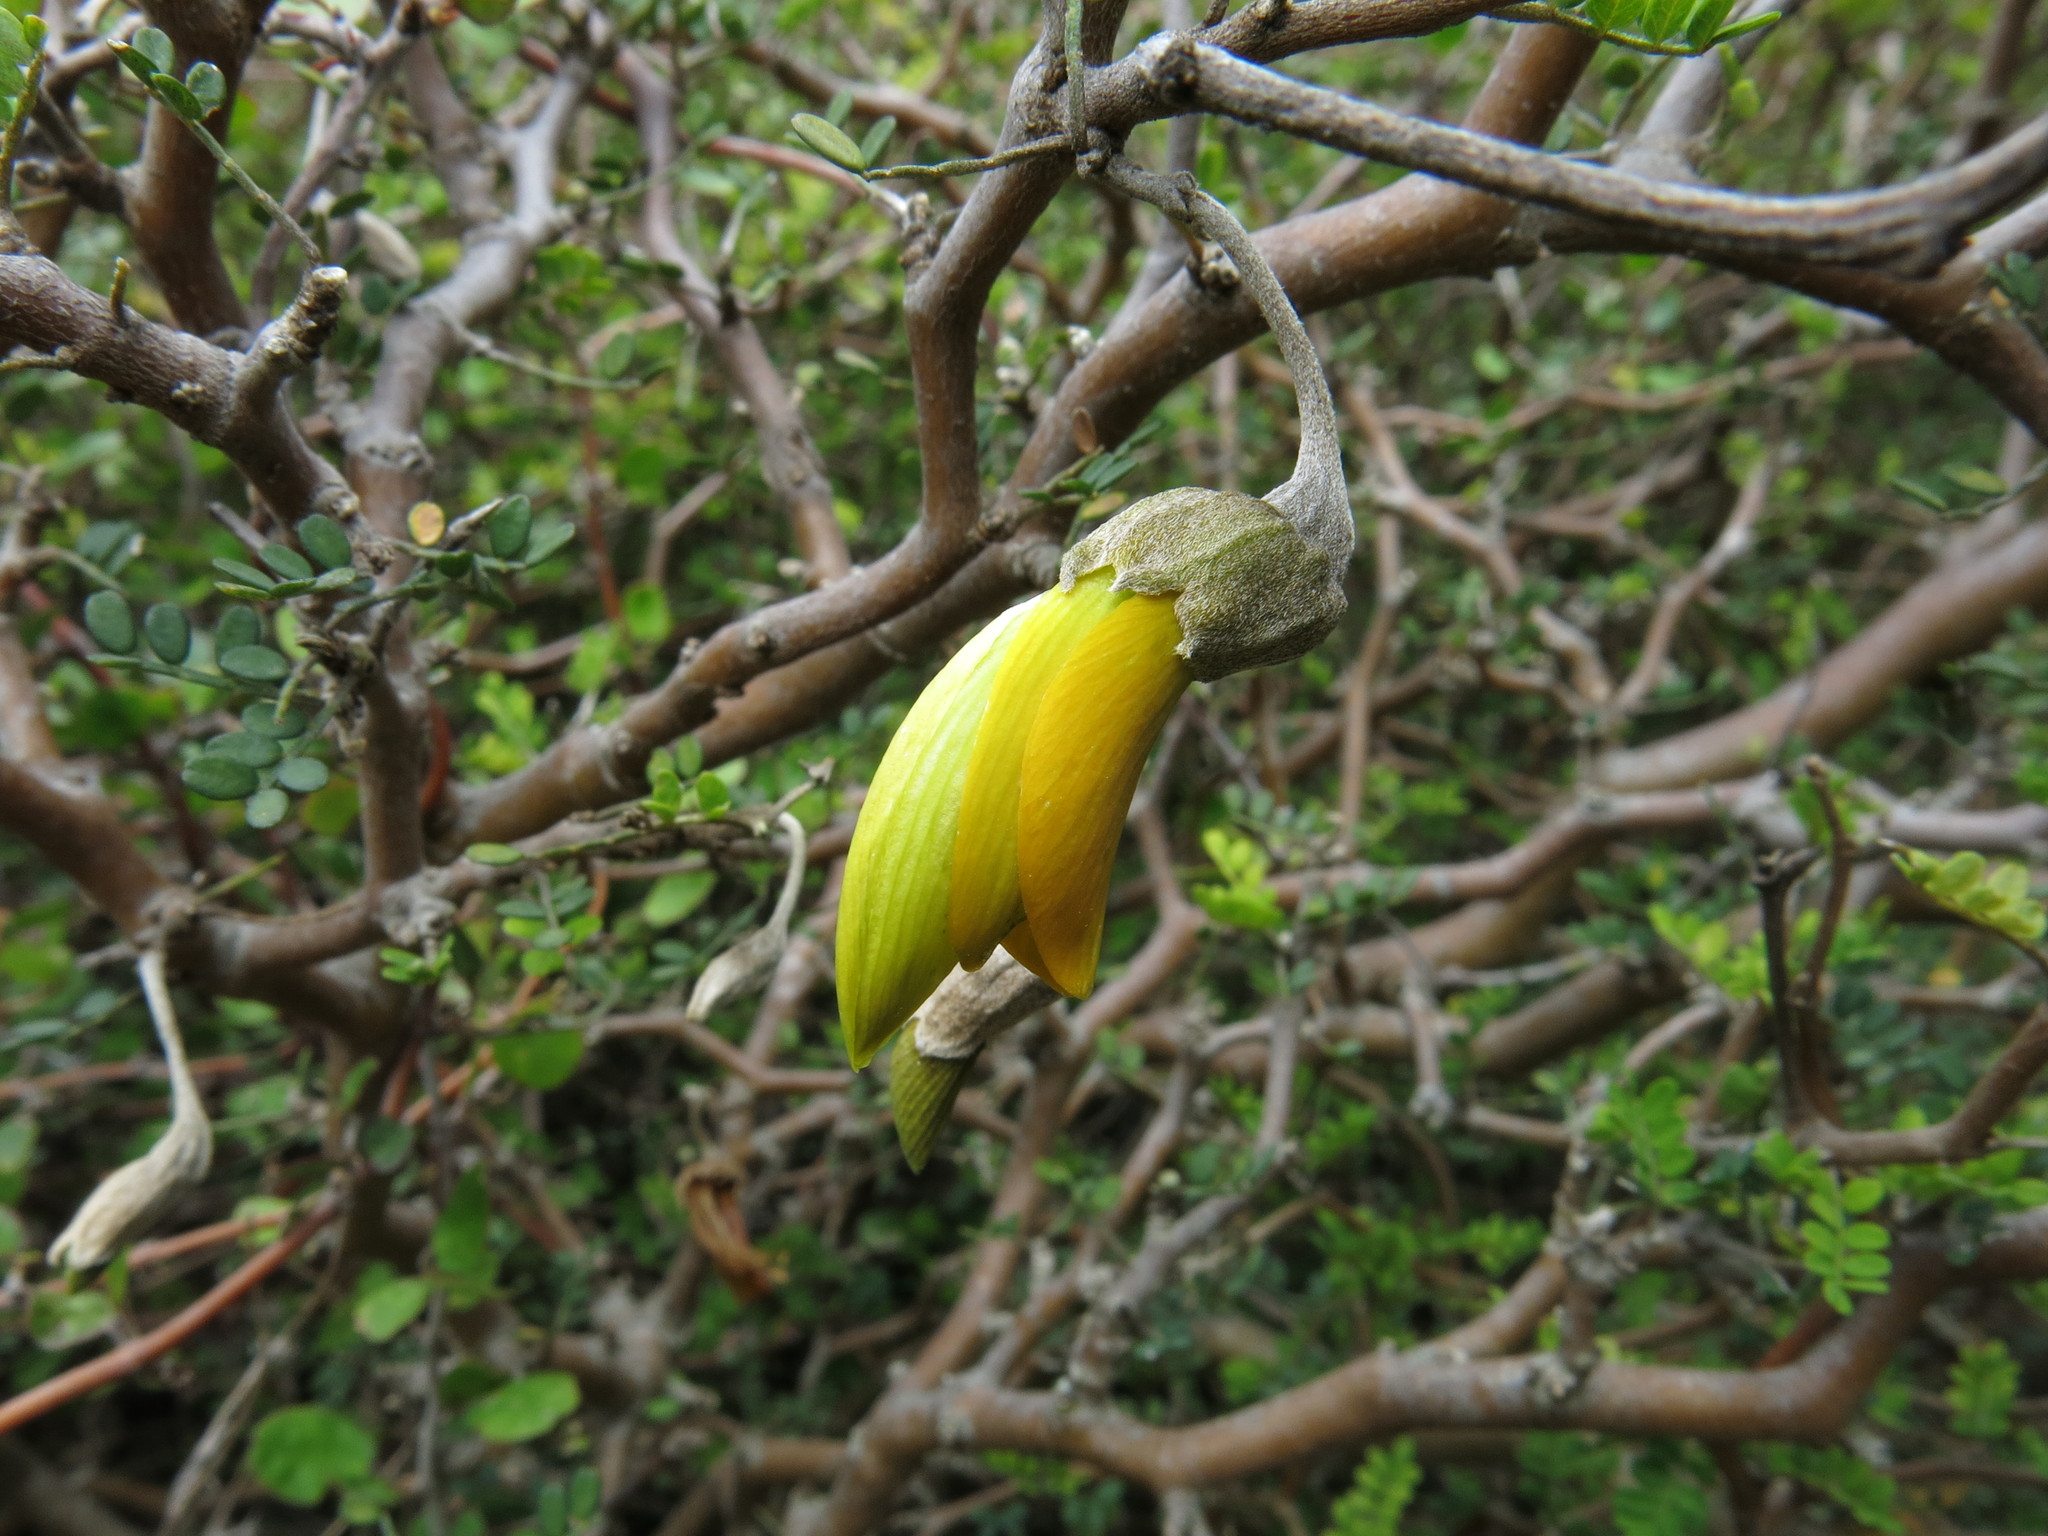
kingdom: Plantae
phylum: Tracheophyta
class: Magnoliopsida
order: Fabales
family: Fabaceae
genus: Sophora
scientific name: Sophora prostrata
